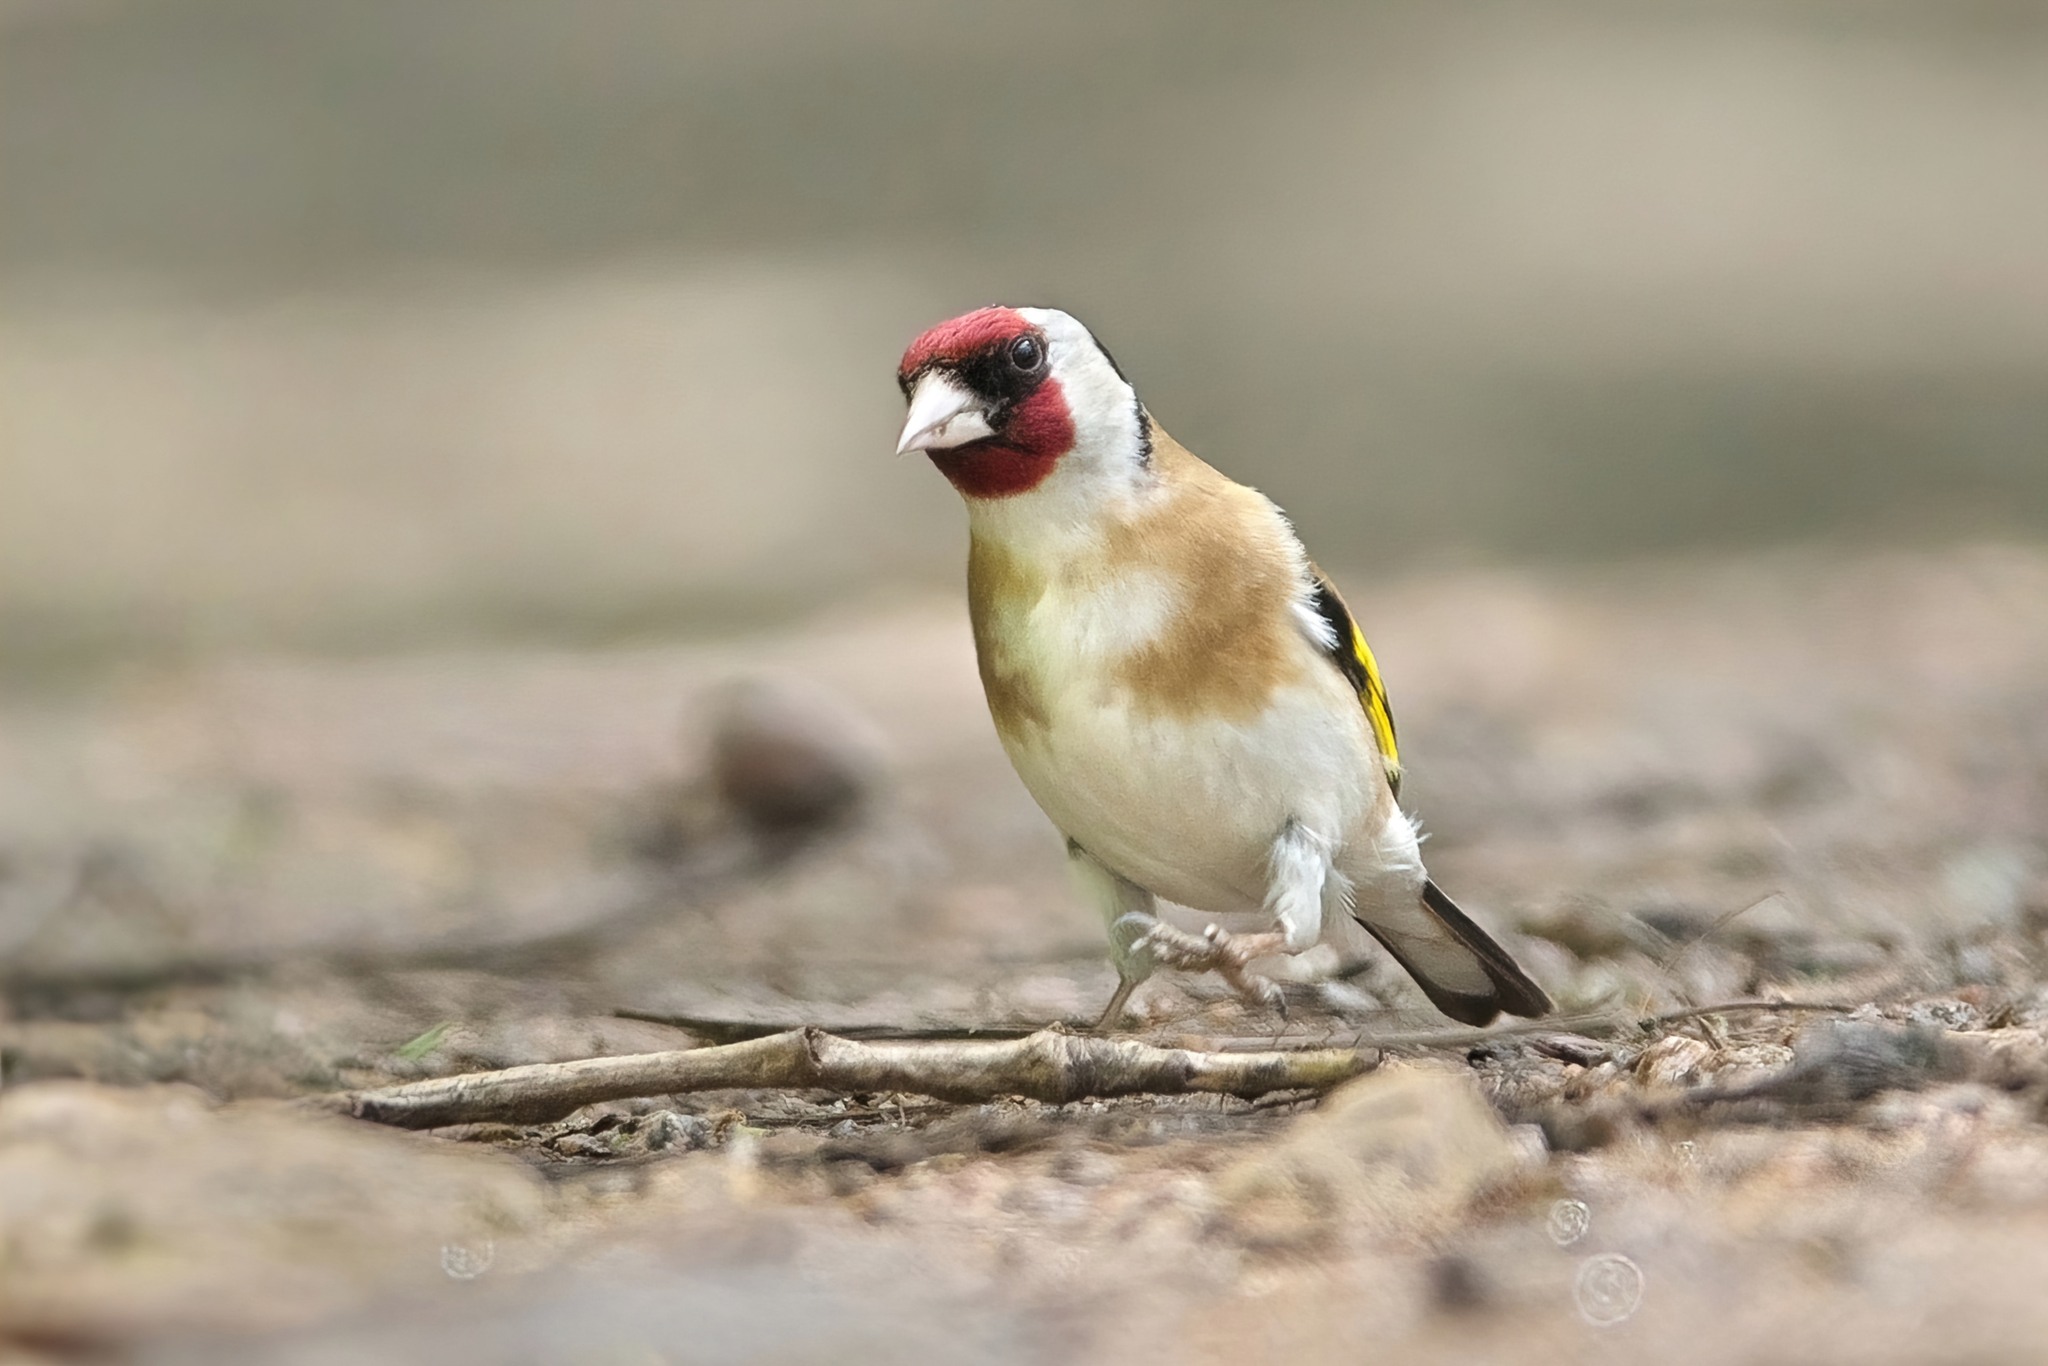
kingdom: Animalia
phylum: Chordata
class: Aves
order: Passeriformes
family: Fringillidae
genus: Carduelis
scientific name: Carduelis carduelis
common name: European goldfinch
